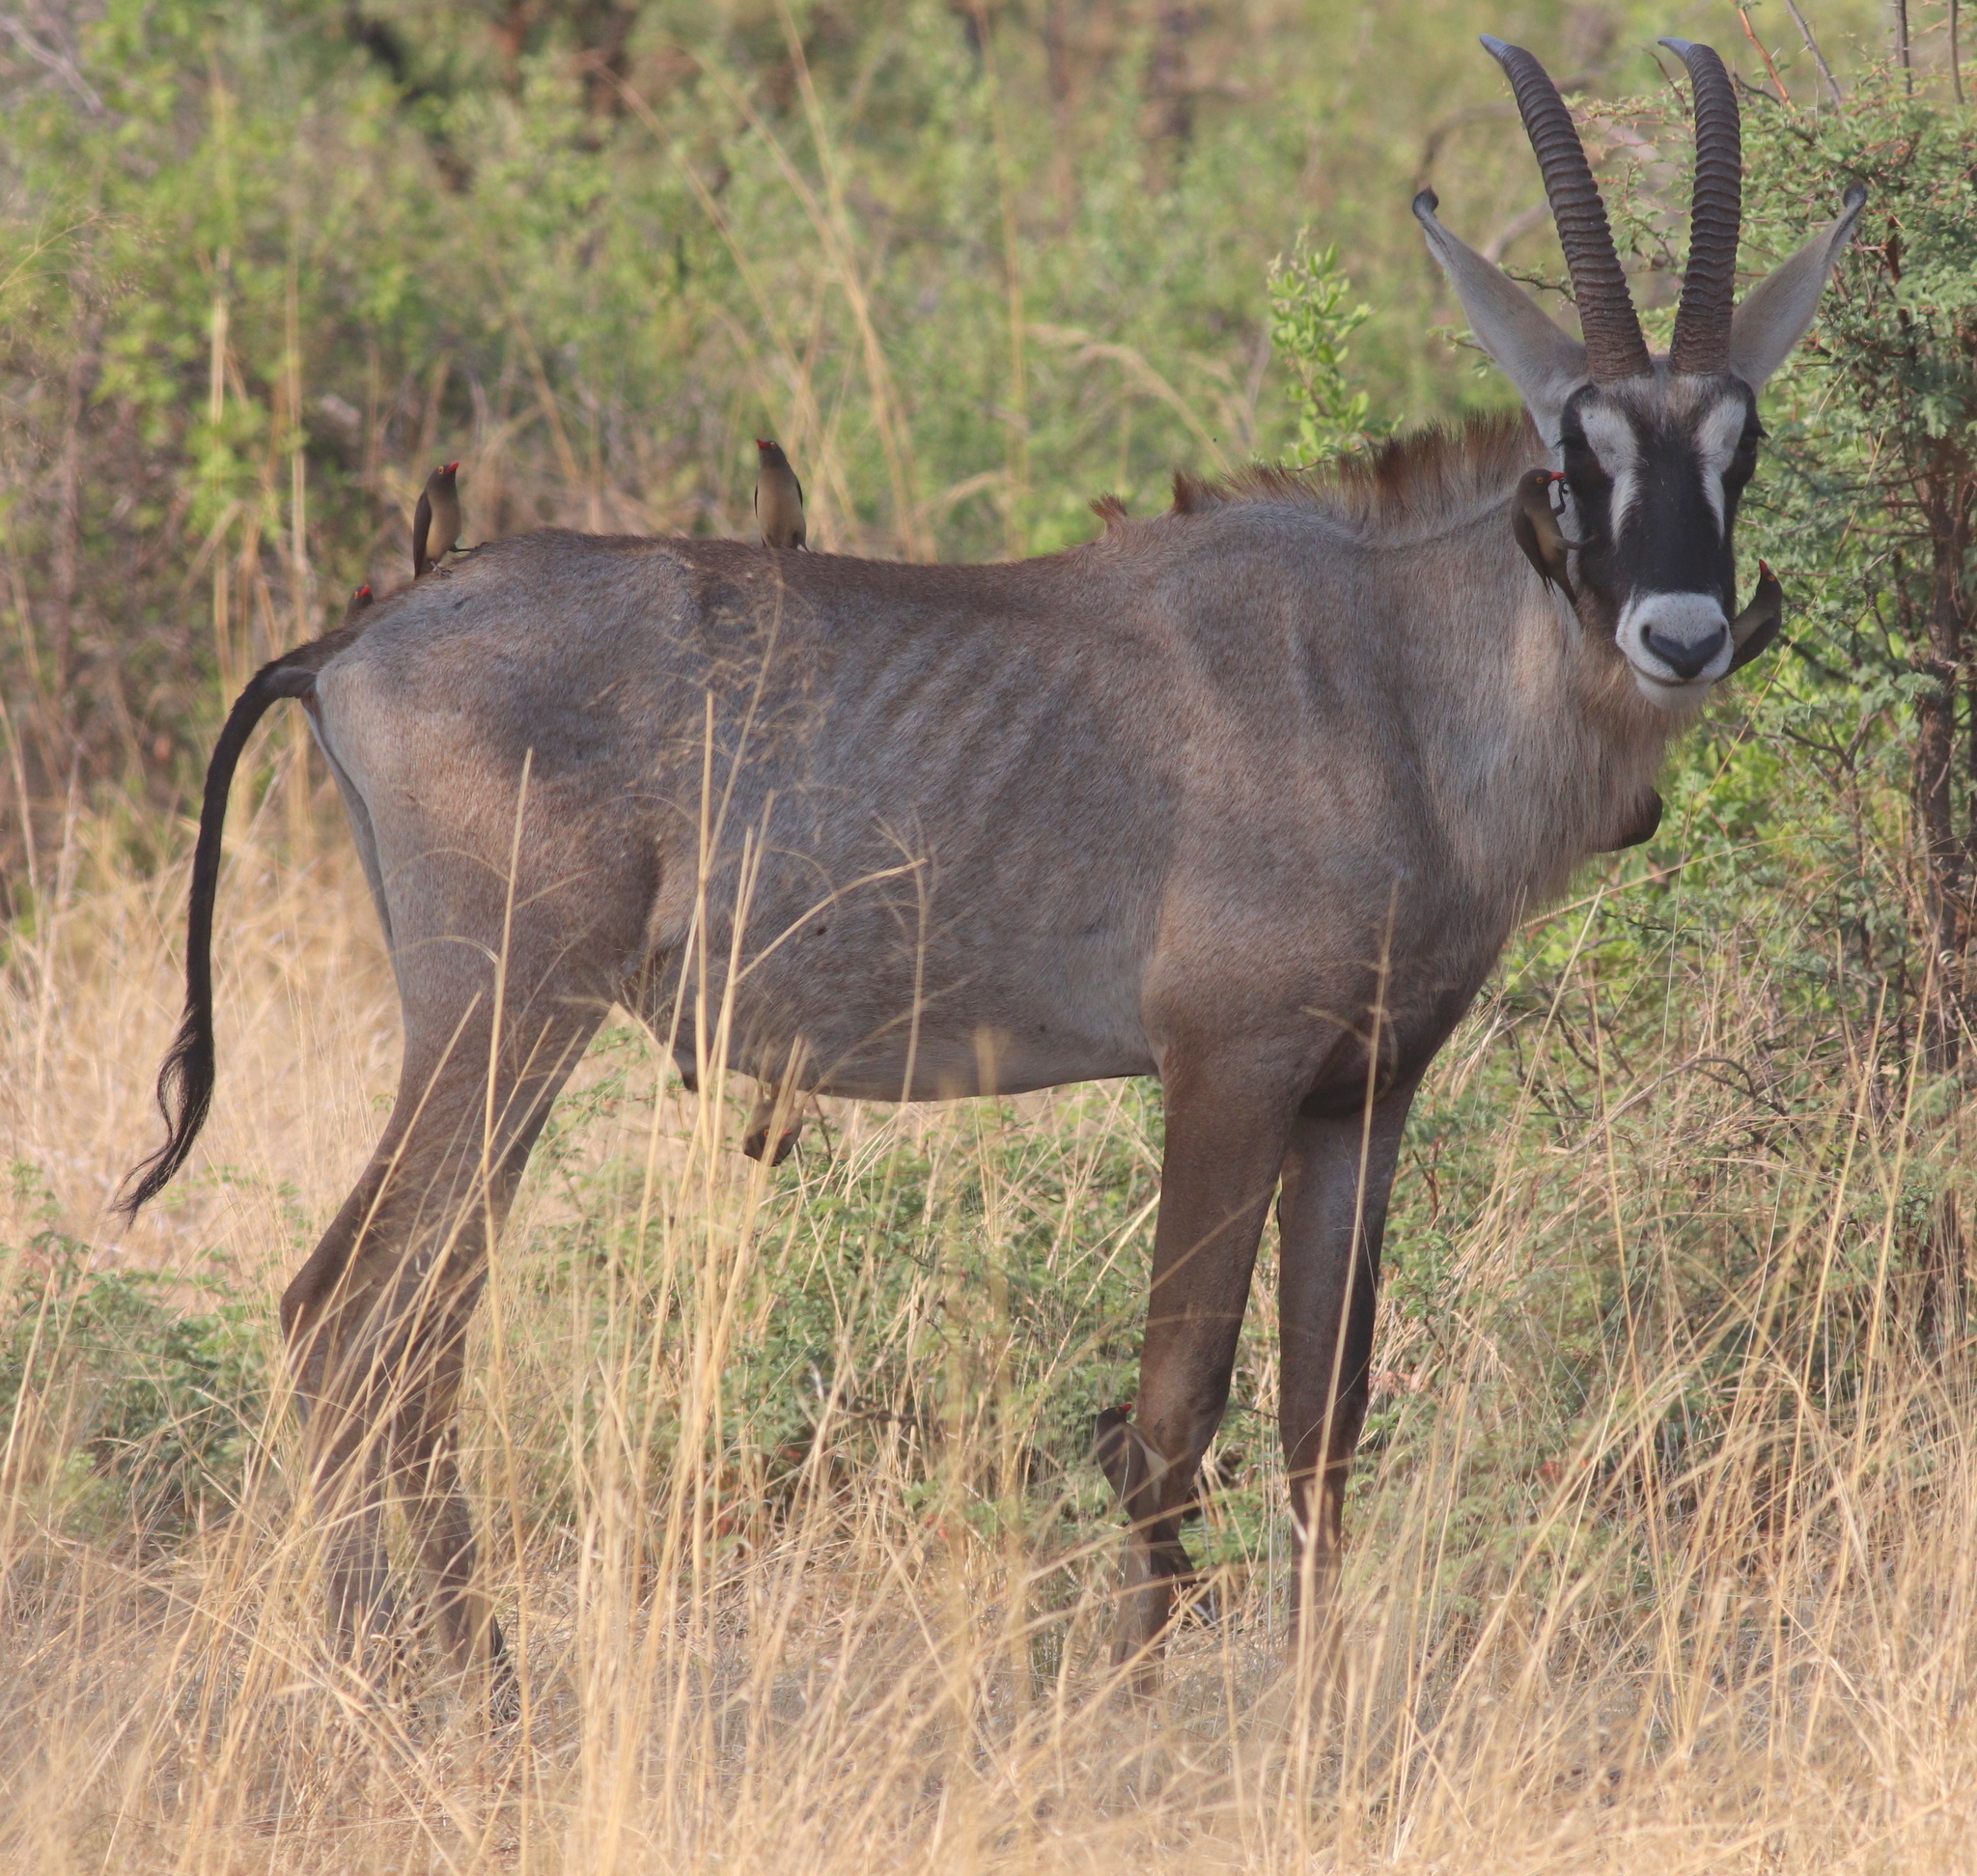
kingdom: Animalia
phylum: Chordata
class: Mammalia
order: Artiodactyla
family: Bovidae
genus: Hippotragus
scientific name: Hippotragus equinus
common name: Roan antelope
